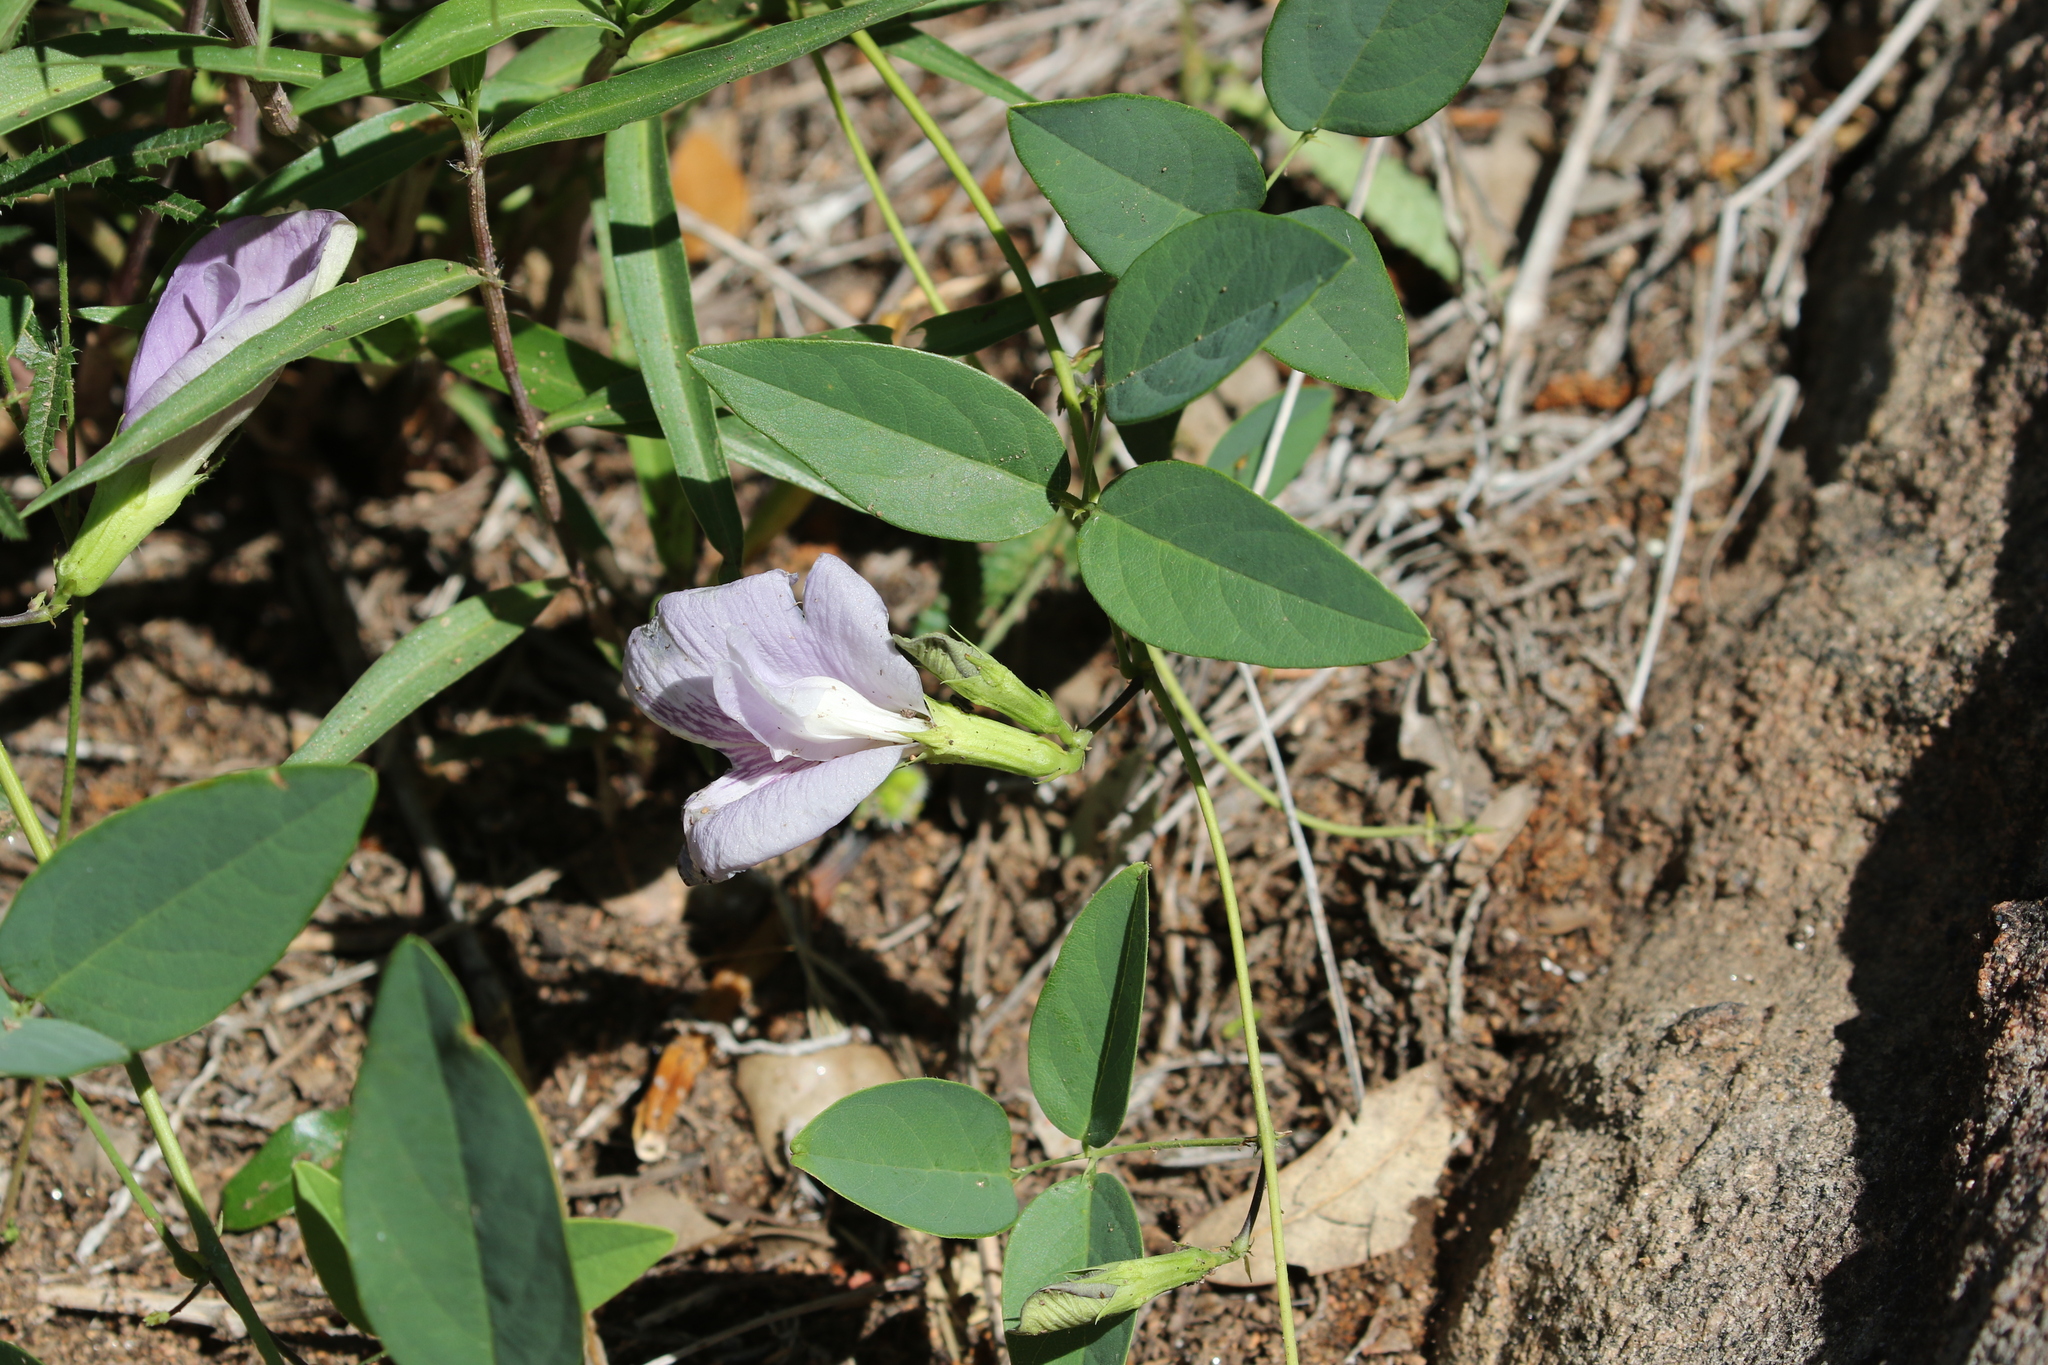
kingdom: Plantae
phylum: Tracheophyta
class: Magnoliopsida
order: Fabales
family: Fabaceae
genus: Clitoria
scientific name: Clitoria mariana
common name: Butterfly-pea
